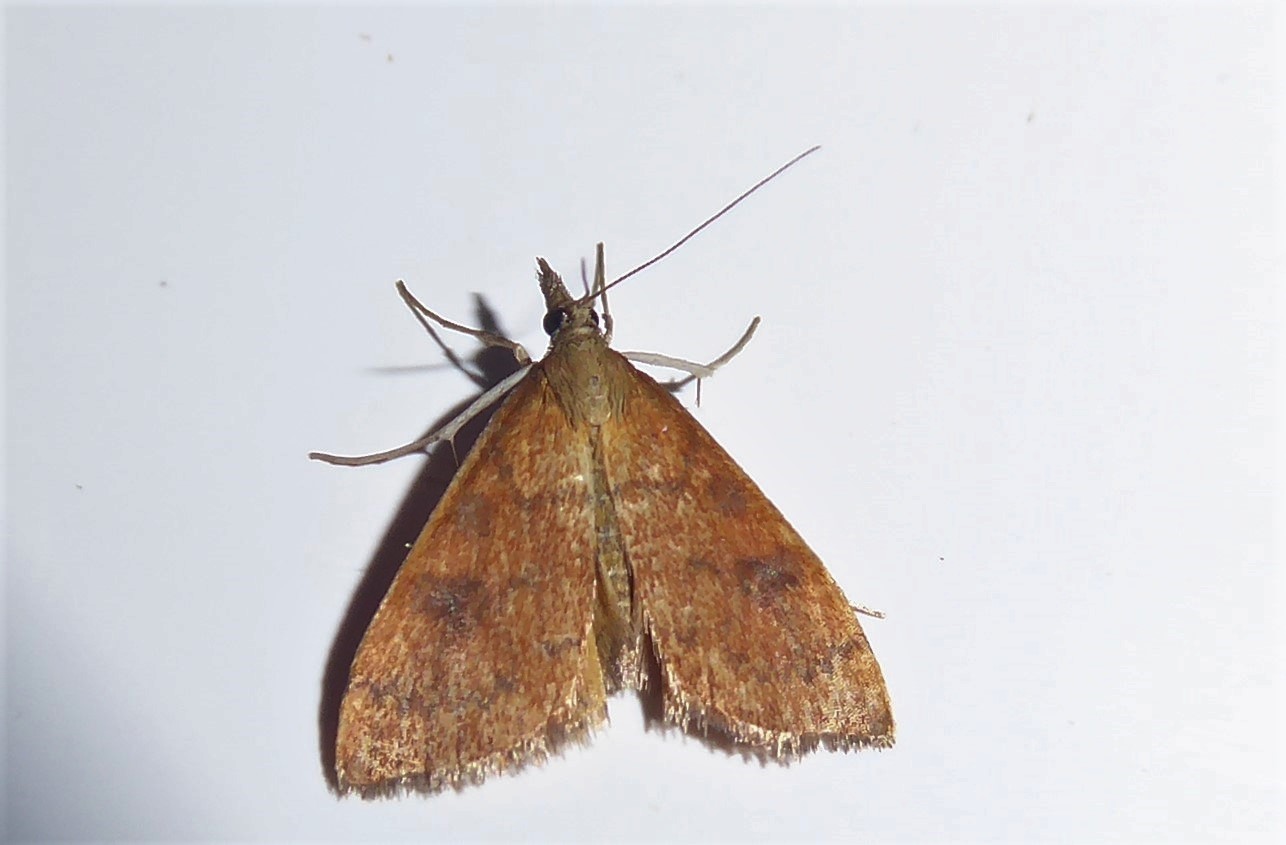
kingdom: Animalia
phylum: Arthropoda
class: Insecta
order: Lepidoptera
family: Crambidae
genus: Udea
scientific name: Udea Mnesictena flavidalis
